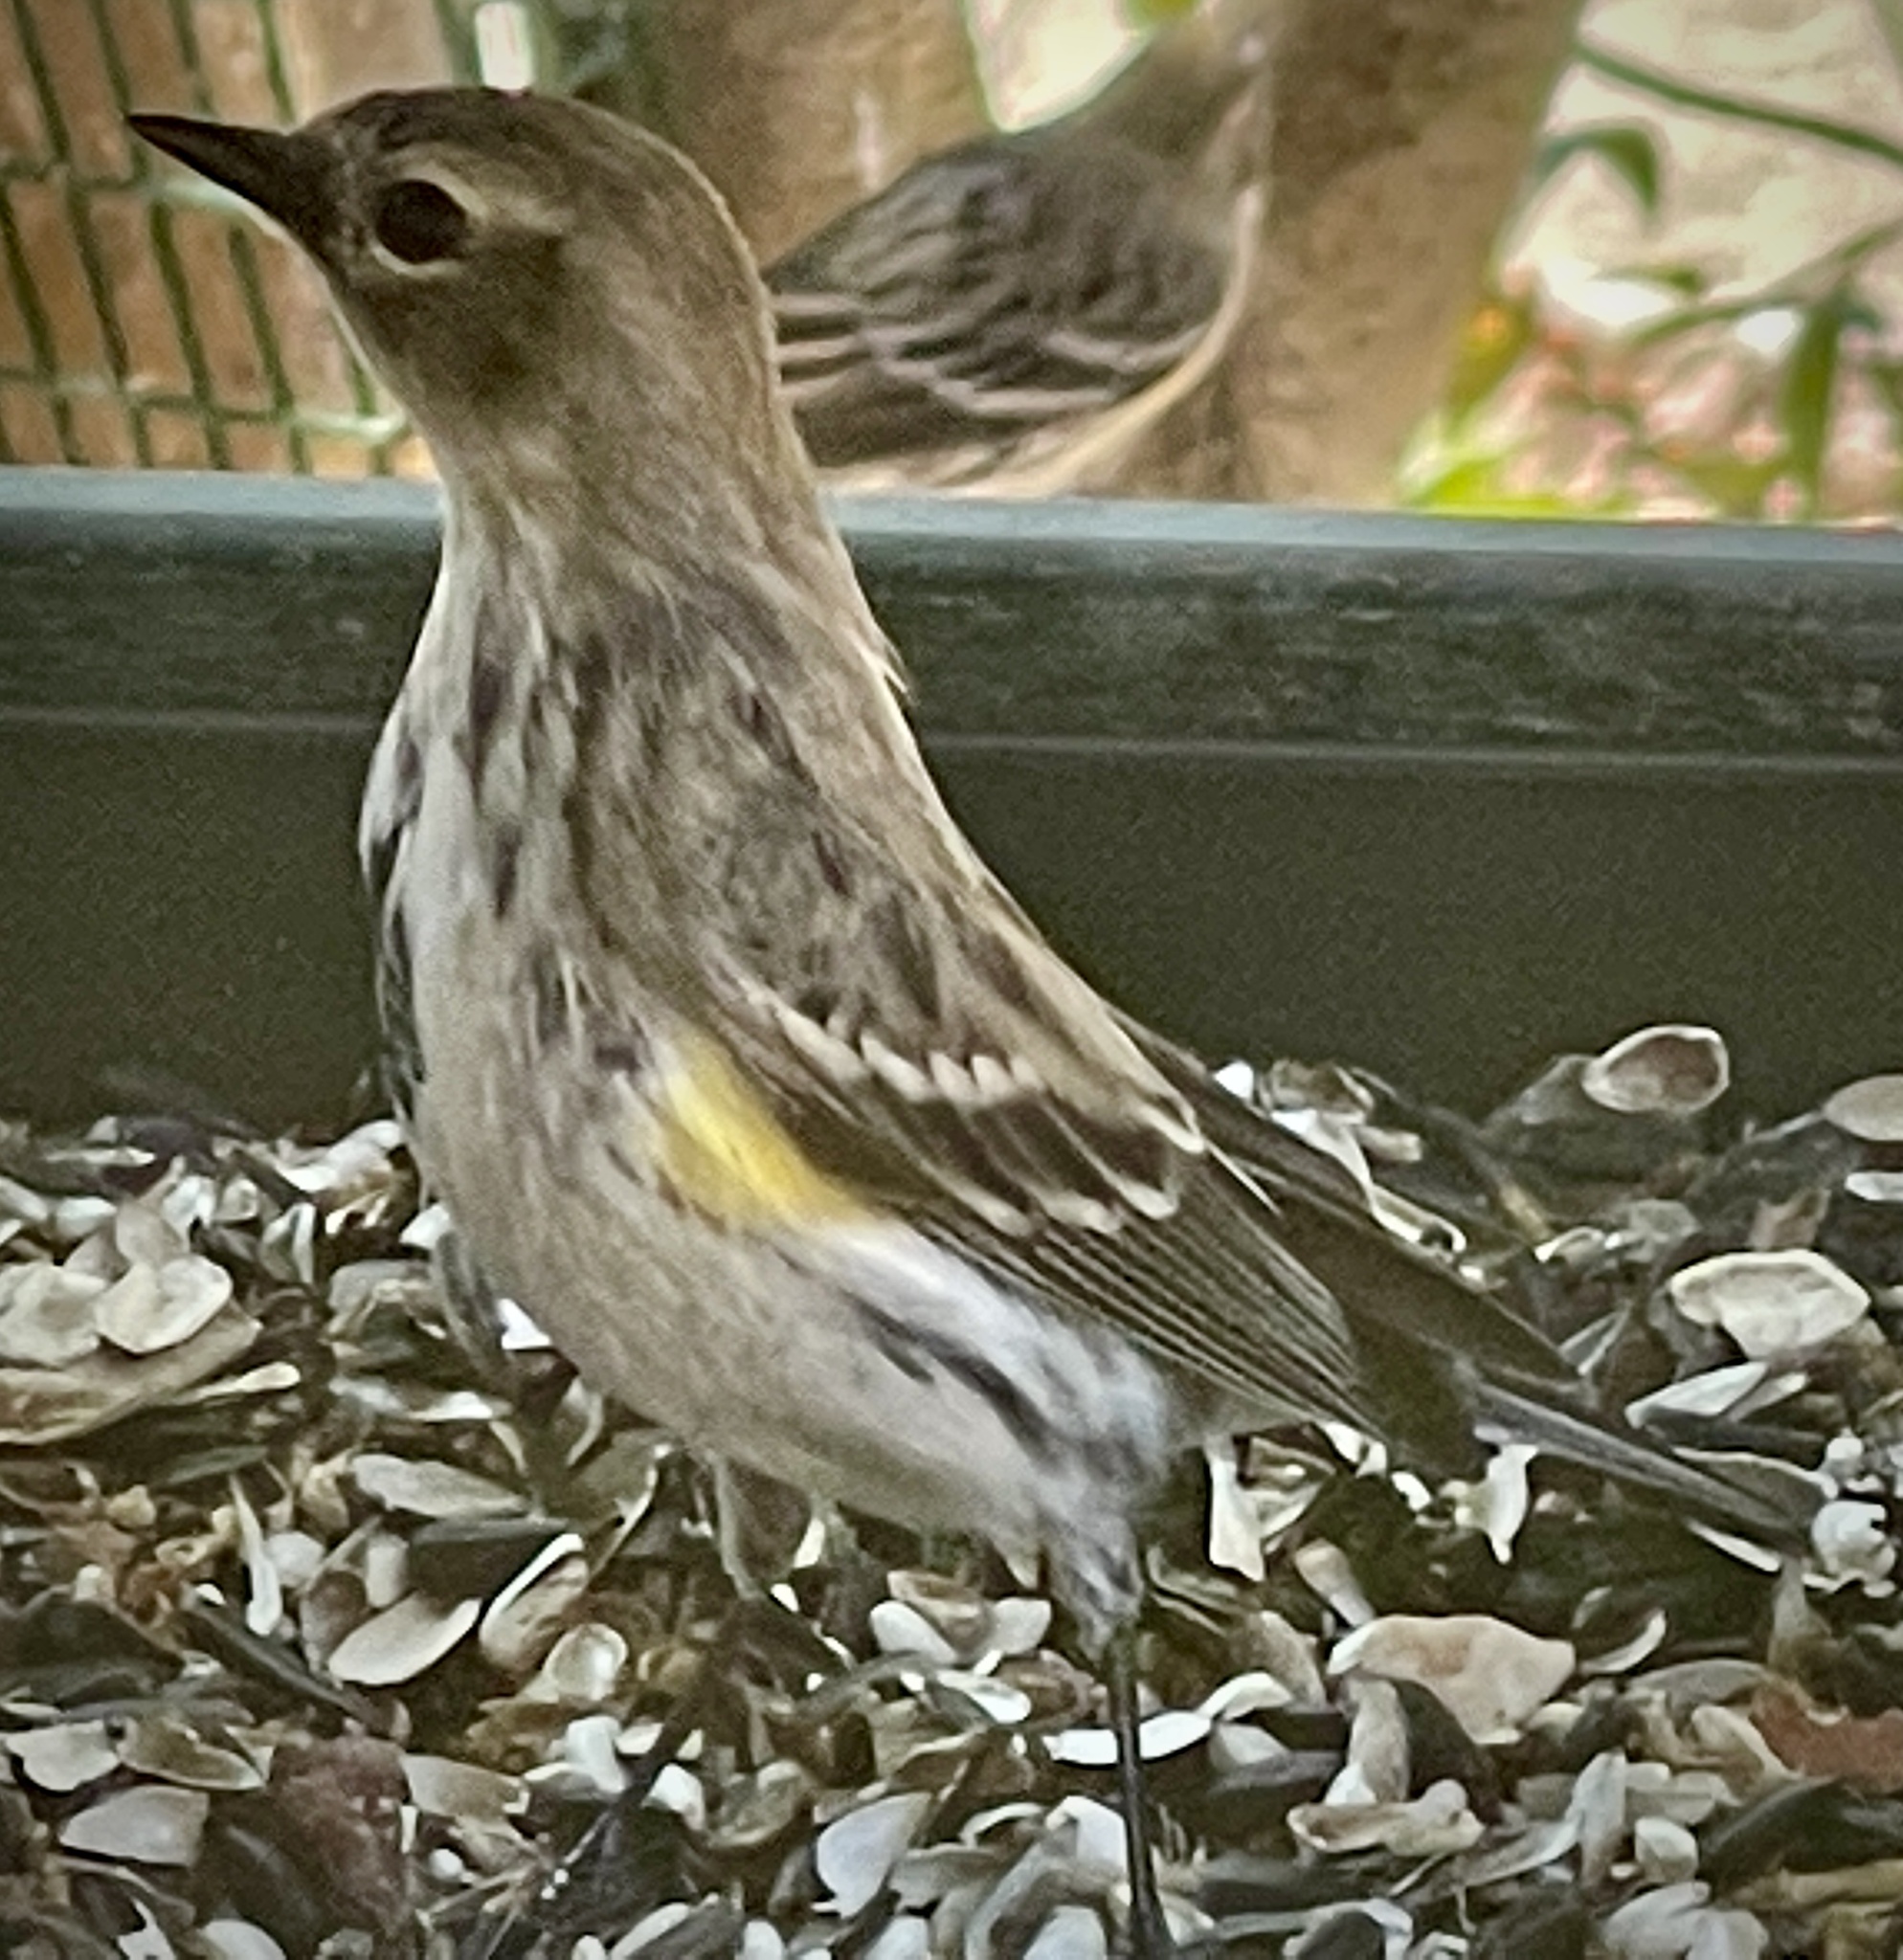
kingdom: Animalia
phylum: Chordata
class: Aves
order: Passeriformes
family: Parulidae
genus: Setophaga
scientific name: Setophaga coronata
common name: Myrtle warbler
